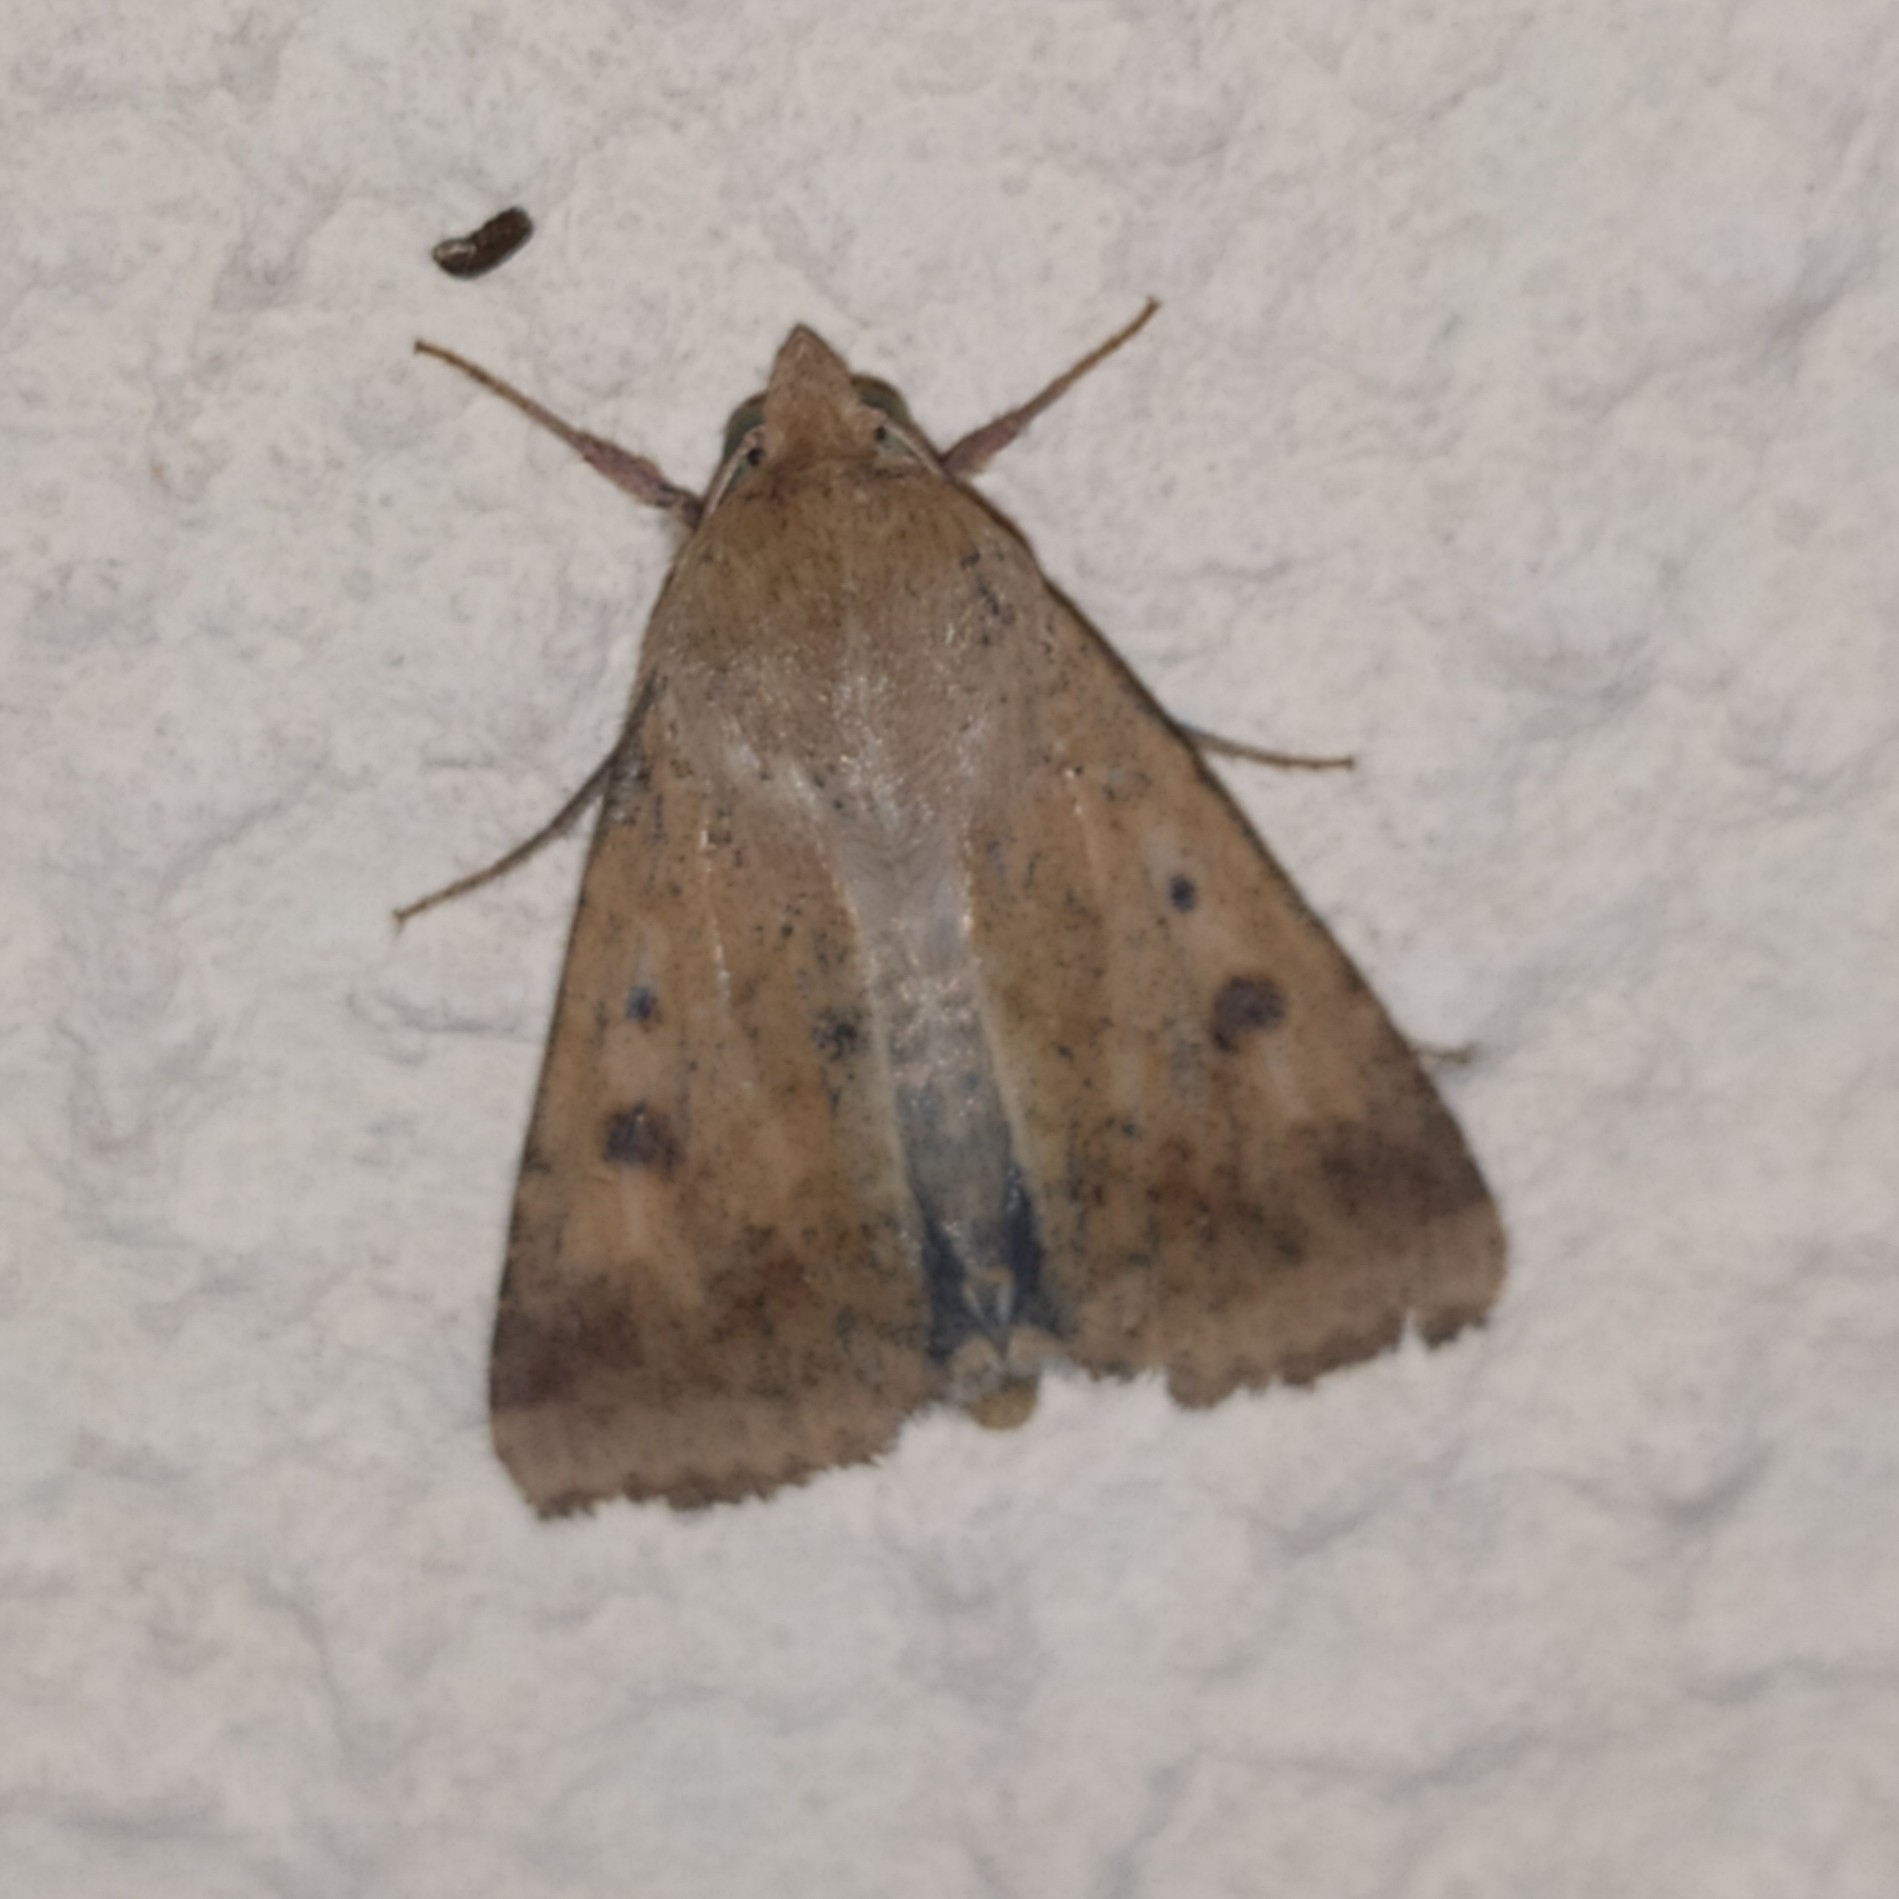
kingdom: Animalia
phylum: Arthropoda
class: Insecta
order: Lepidoptera
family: Noctuidae
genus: Helicoverpa
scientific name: Helicoverpa armigera
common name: Cotton bollworm
